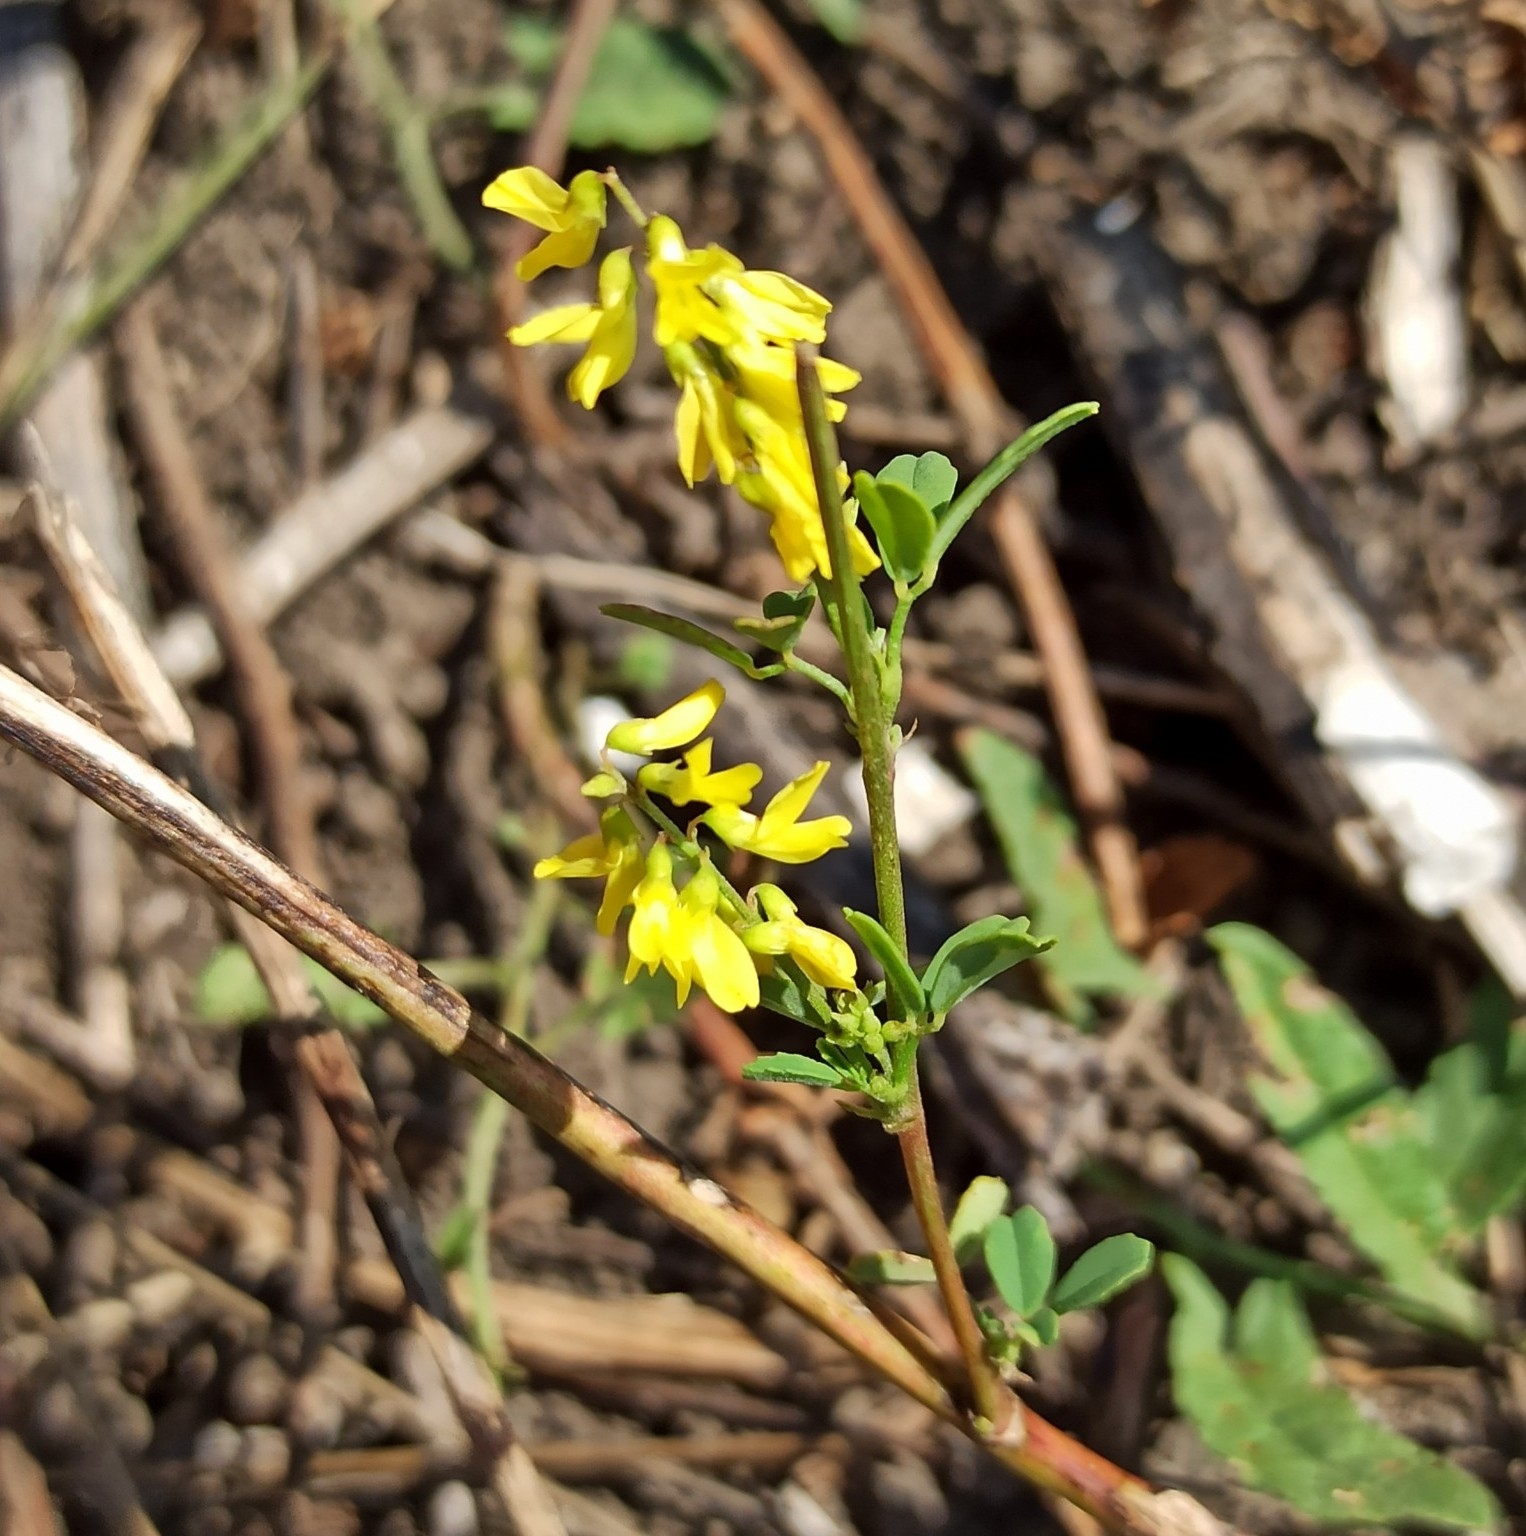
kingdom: Plantae
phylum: Tracheophyta
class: Magnoliopsida
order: Fabales
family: Fabaceae
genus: Melilotus
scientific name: Melilotus officinalis
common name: Sweetclover
